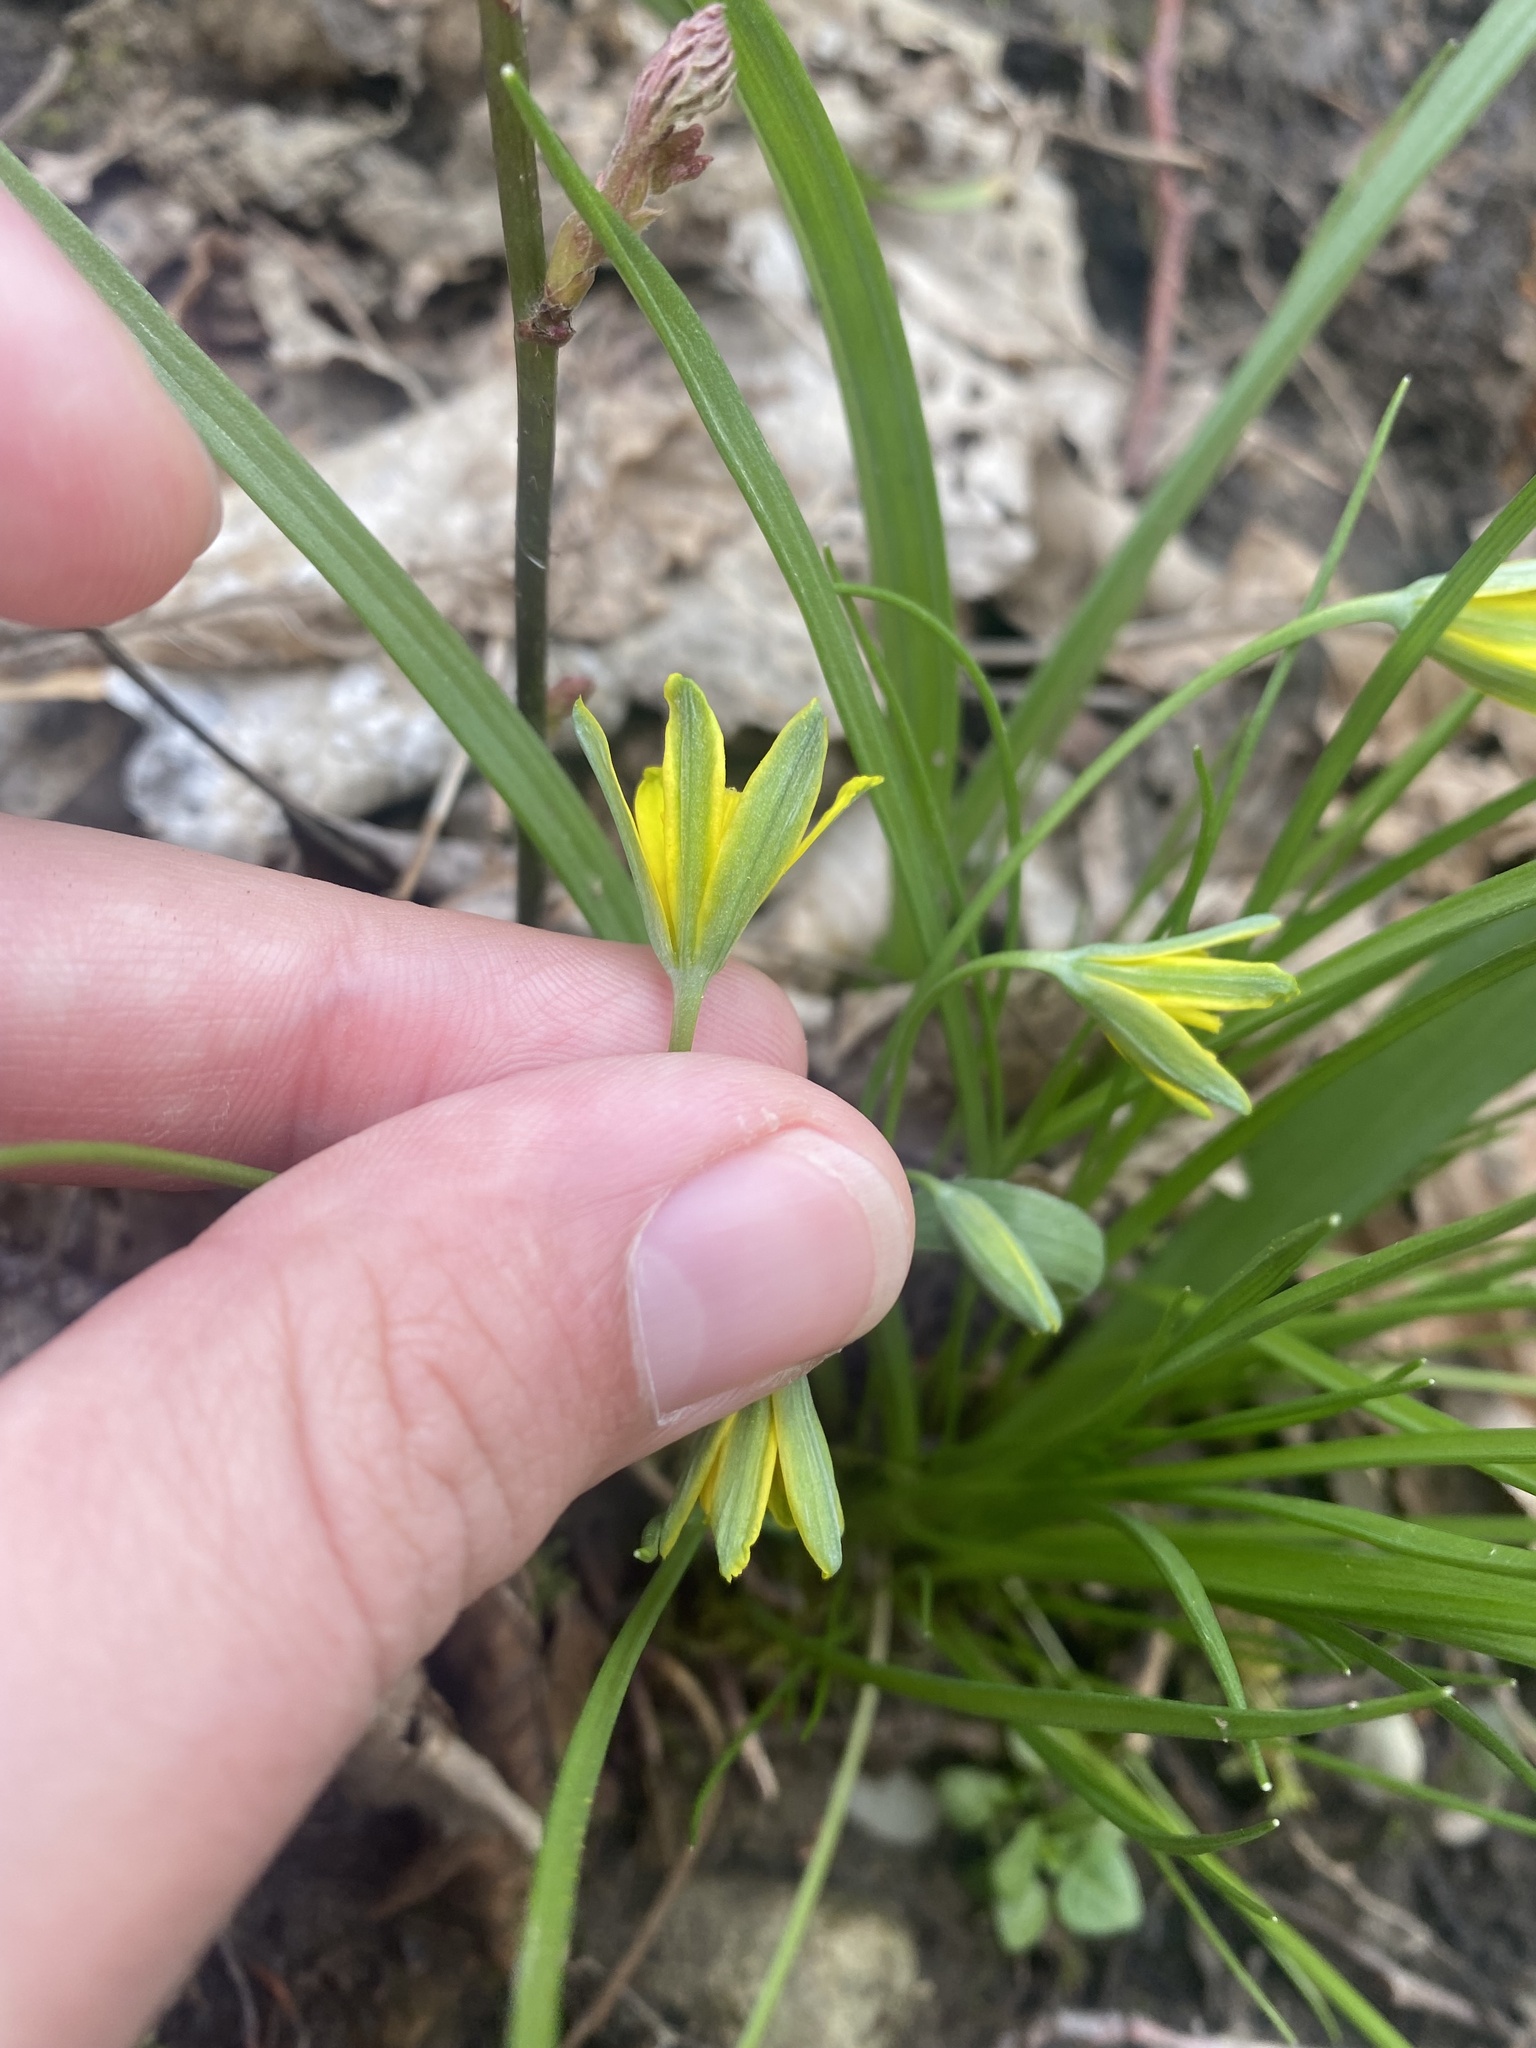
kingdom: Plantae
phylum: Tracheophyta
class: Liliopsida
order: Liliales
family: Liliaceae
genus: Gagea
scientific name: Gagea lutea
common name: Yellow star-of-bethlehem
